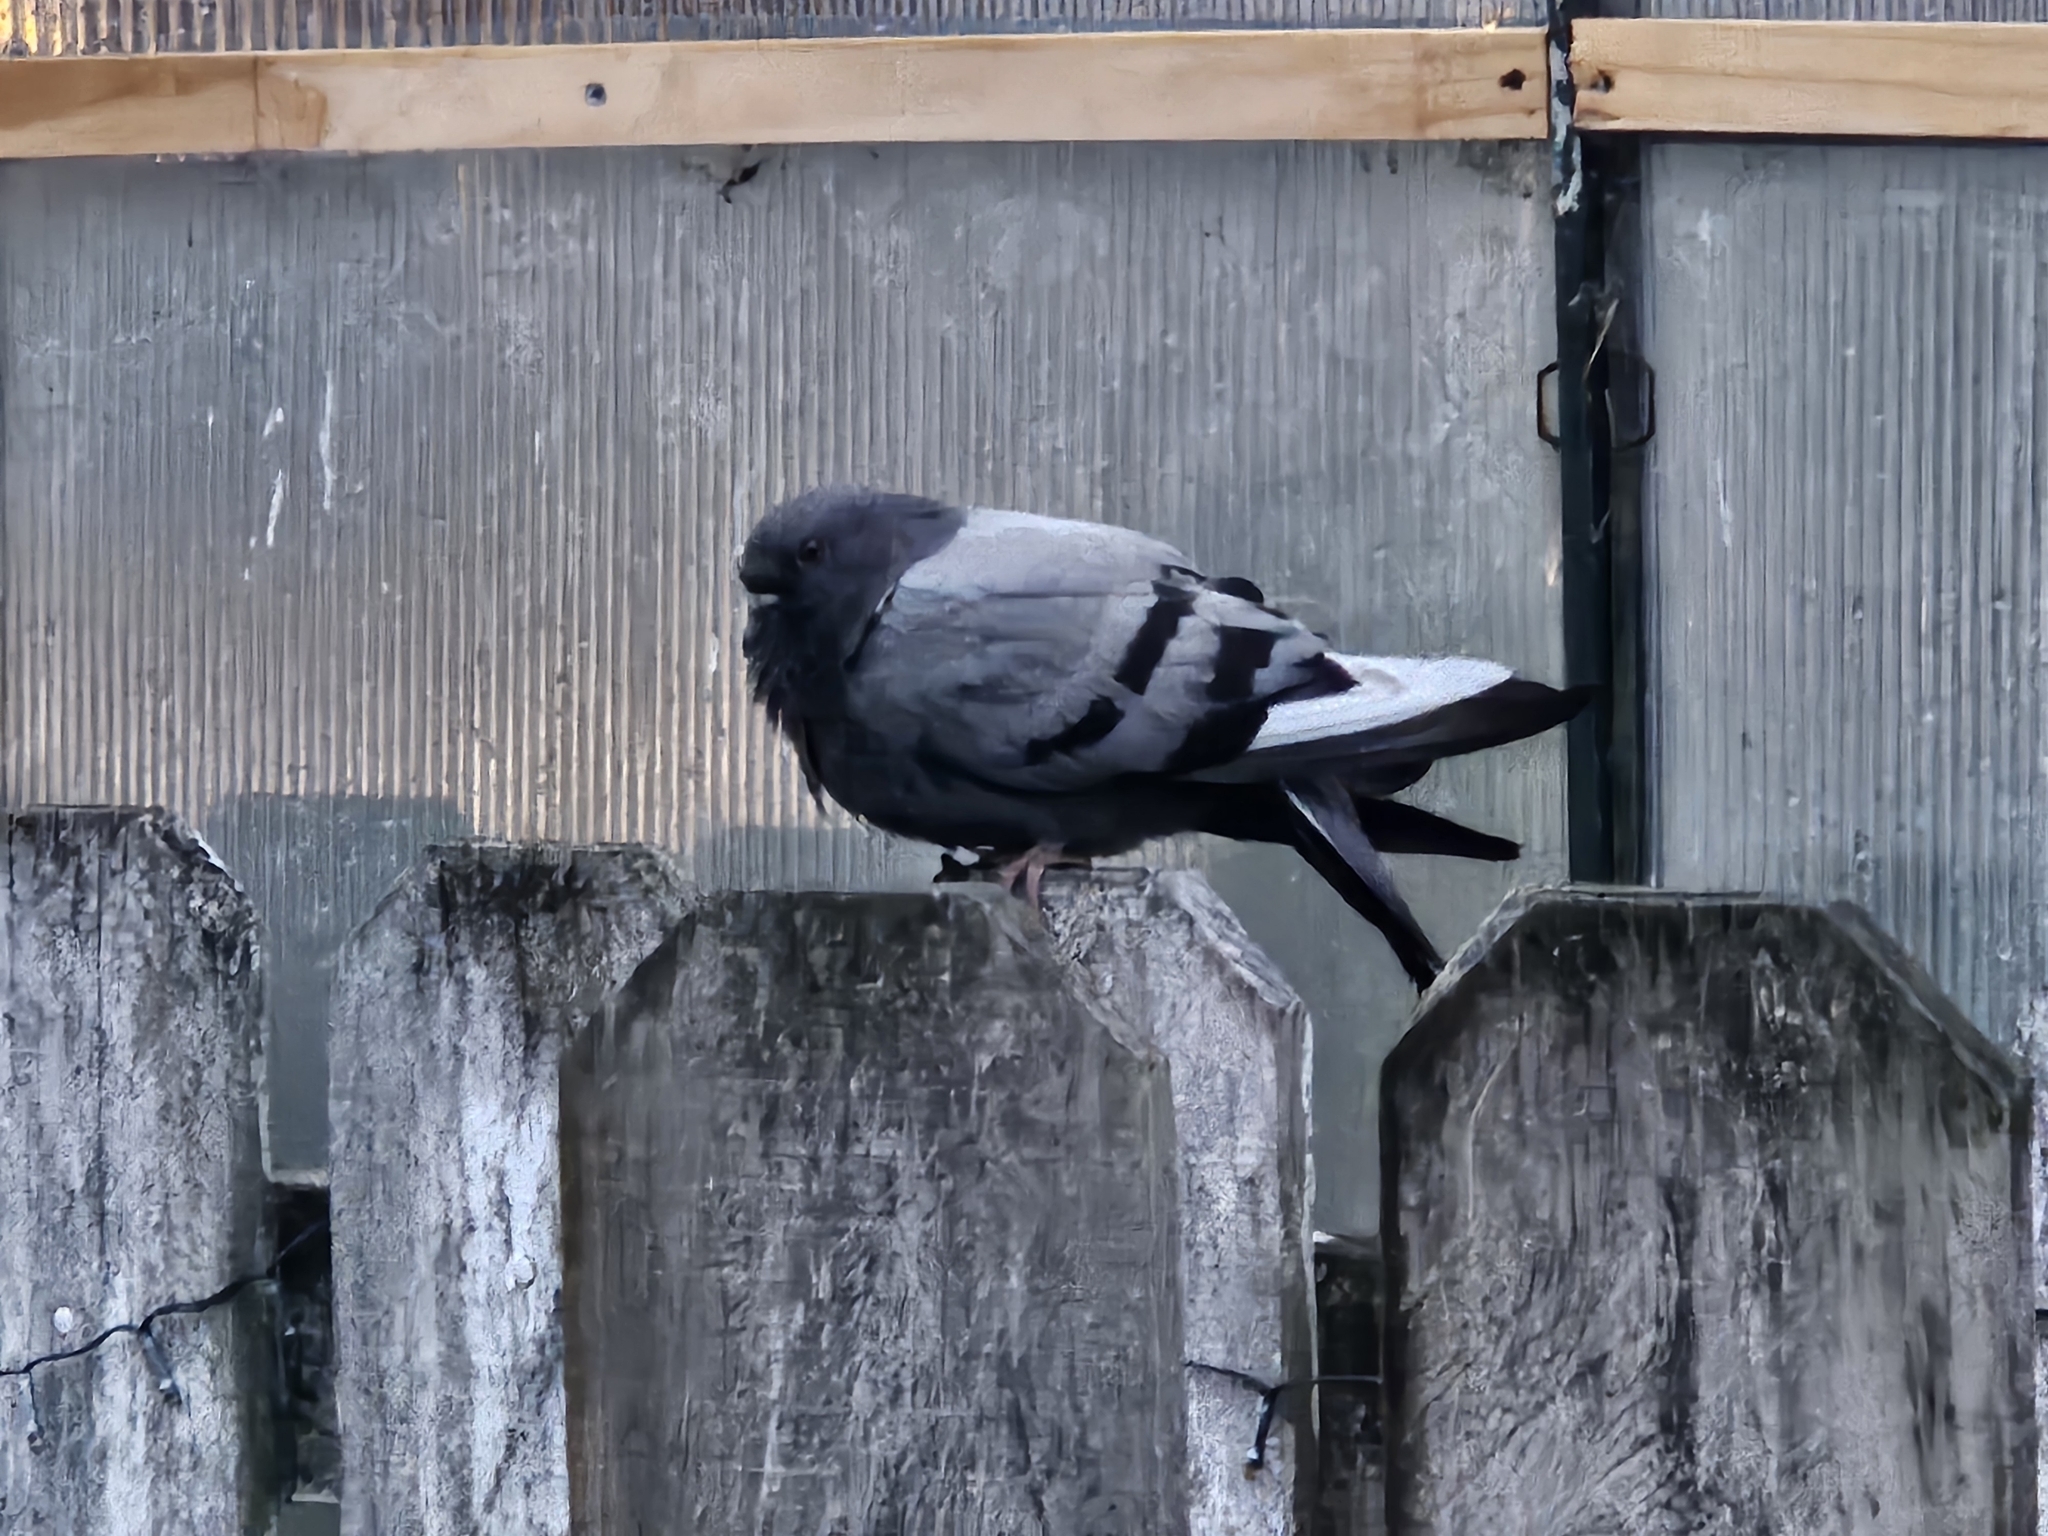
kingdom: Animalia
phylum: Chordata
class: Aves
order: Columbiformes
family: Columbidae
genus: Columba
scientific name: Columba livia
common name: Rock pigeon
